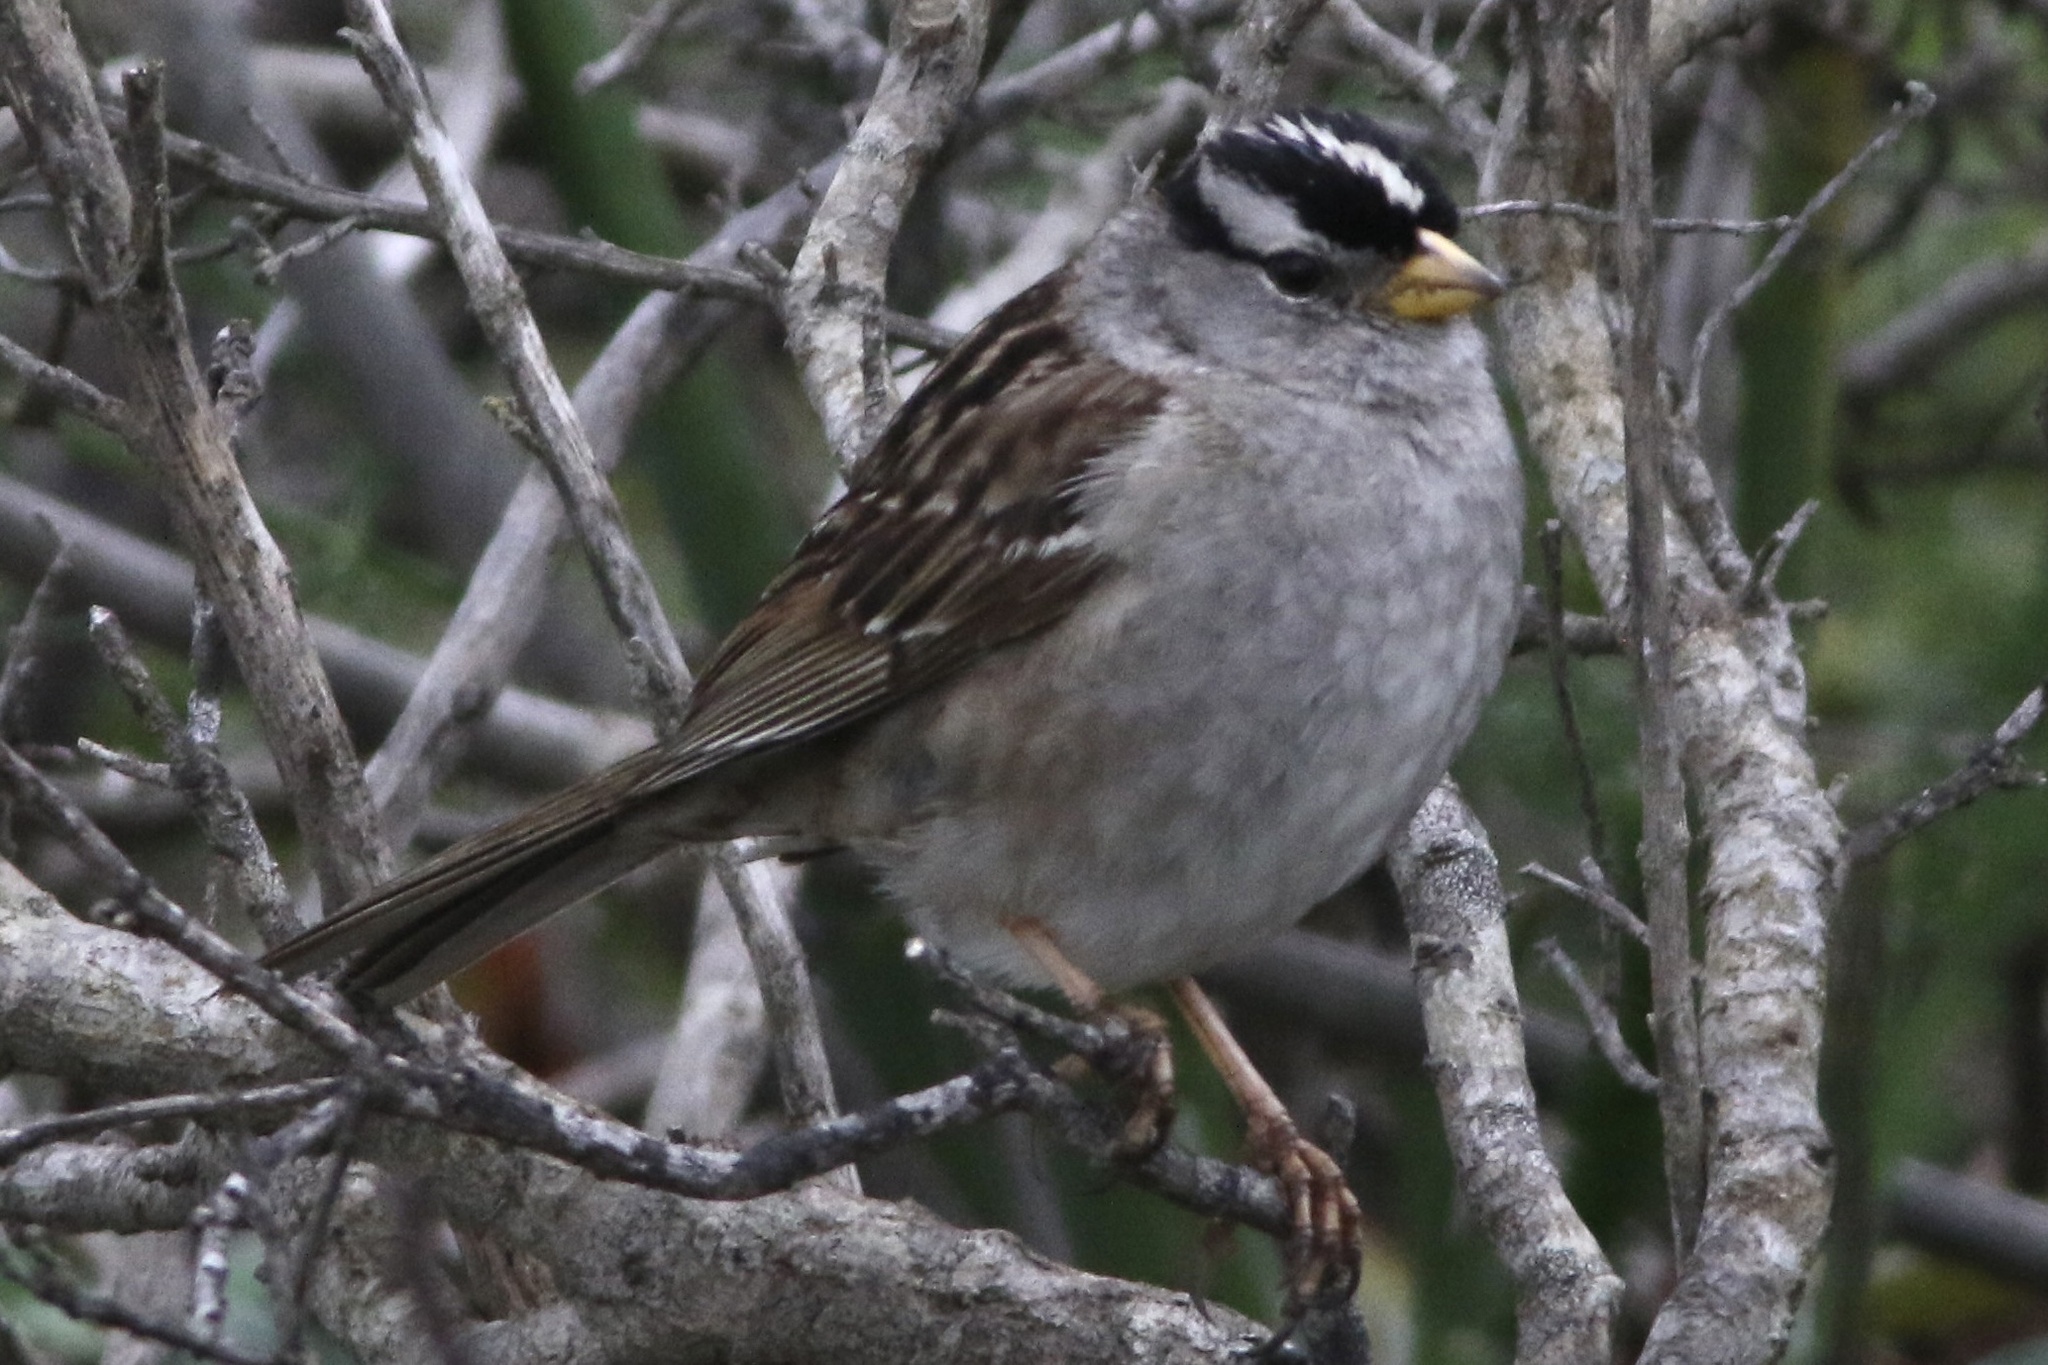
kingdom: Animalia
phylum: Chordata
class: Aves
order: Passeriformes
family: Passerellidae
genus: Zonotrichia
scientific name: Zonotrichia leucophrys
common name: White-crowned sparrow
